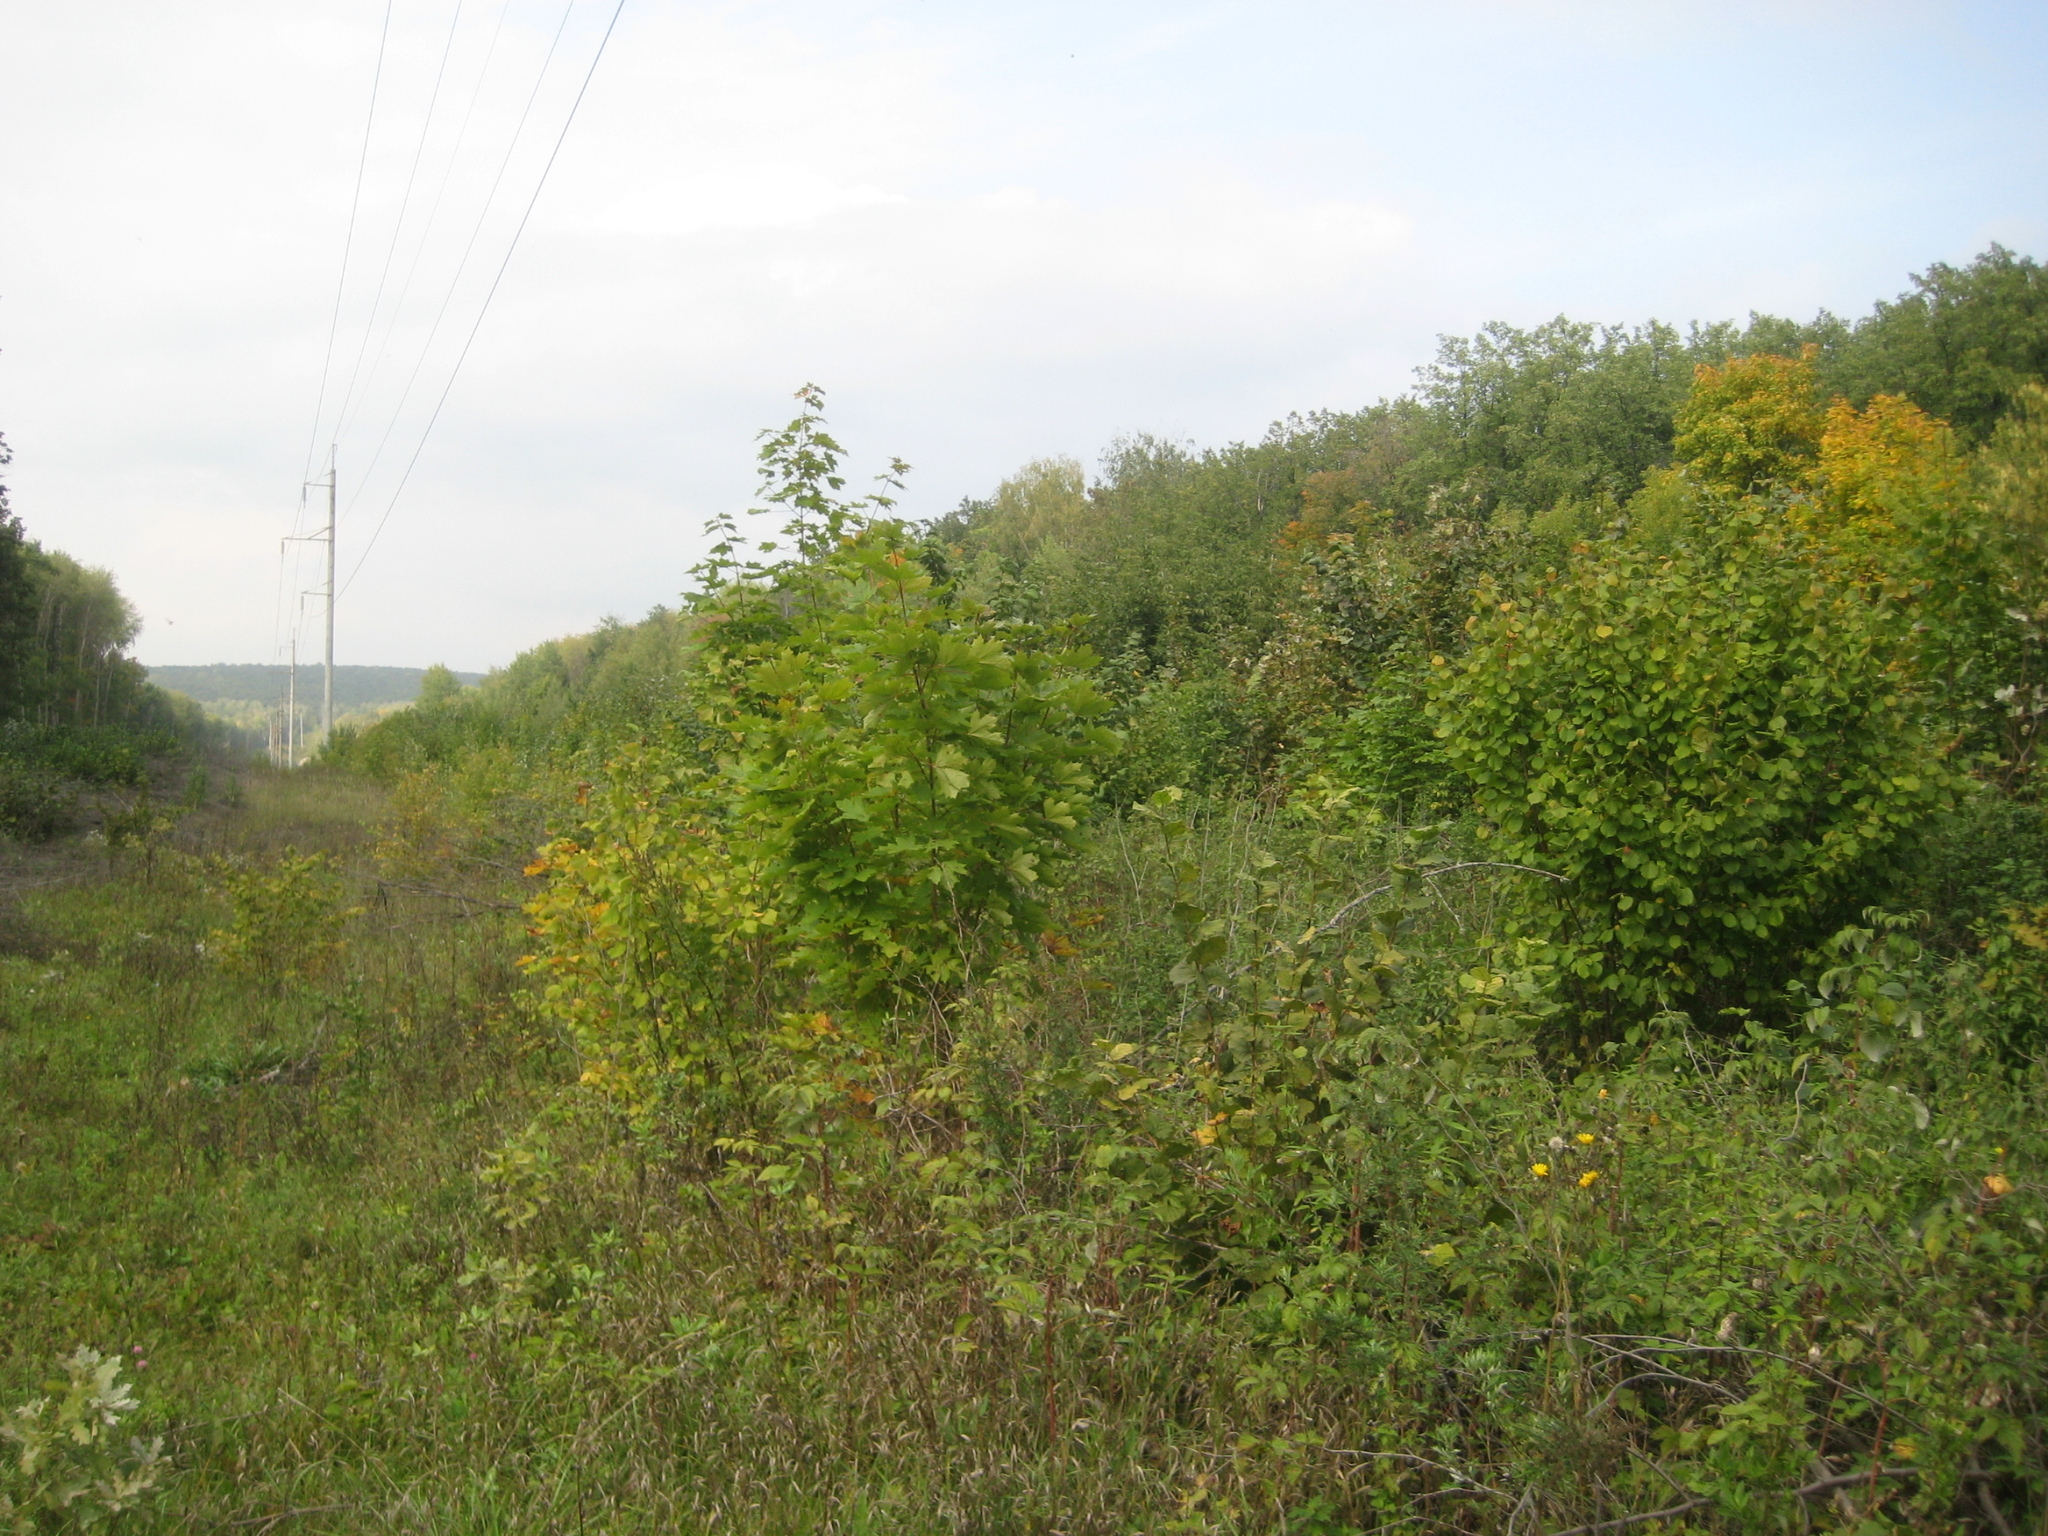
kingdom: Plantae
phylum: Tracheophyta
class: Magnoliopsida
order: Sapindales
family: Sapindaceae
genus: Acer
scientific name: Acer platanoides
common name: Norway maple
